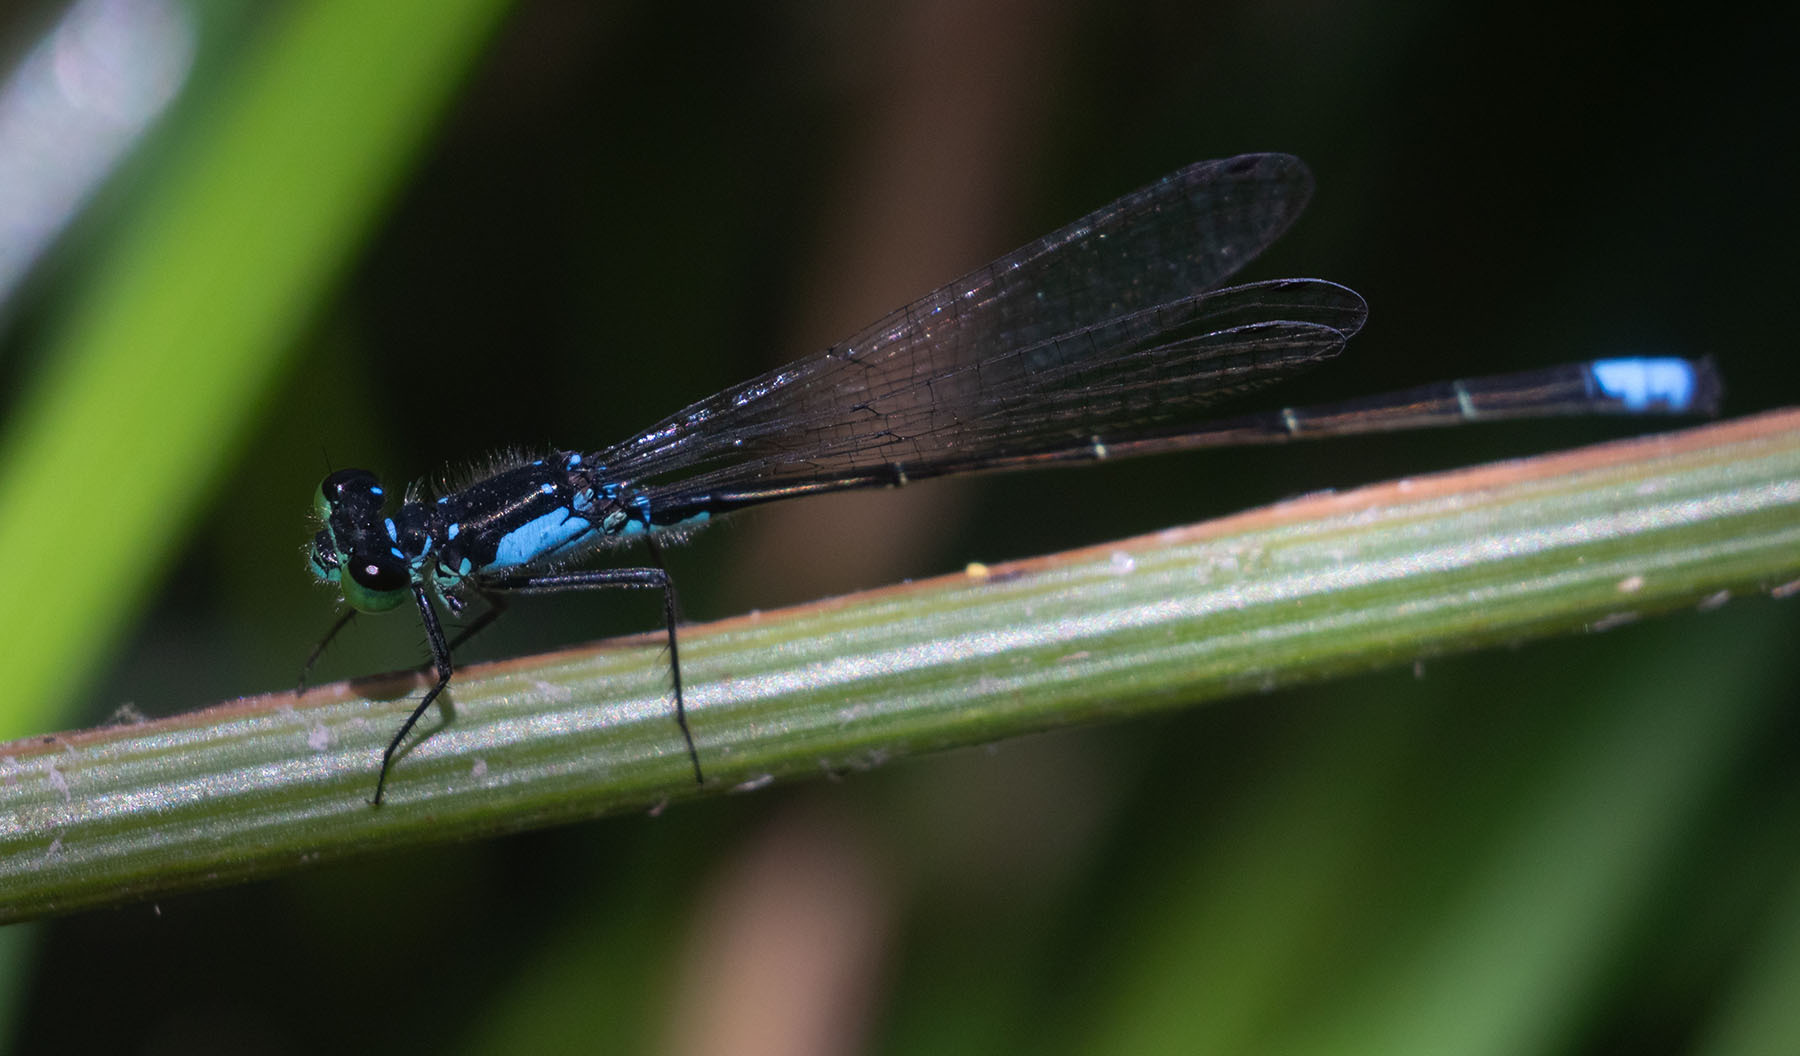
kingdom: Animalia
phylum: Arthropoda
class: Insecta
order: Odonata
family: Coenagrionidae
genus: Ischnura
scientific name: Ischnura cervula
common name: Pacific forktail
